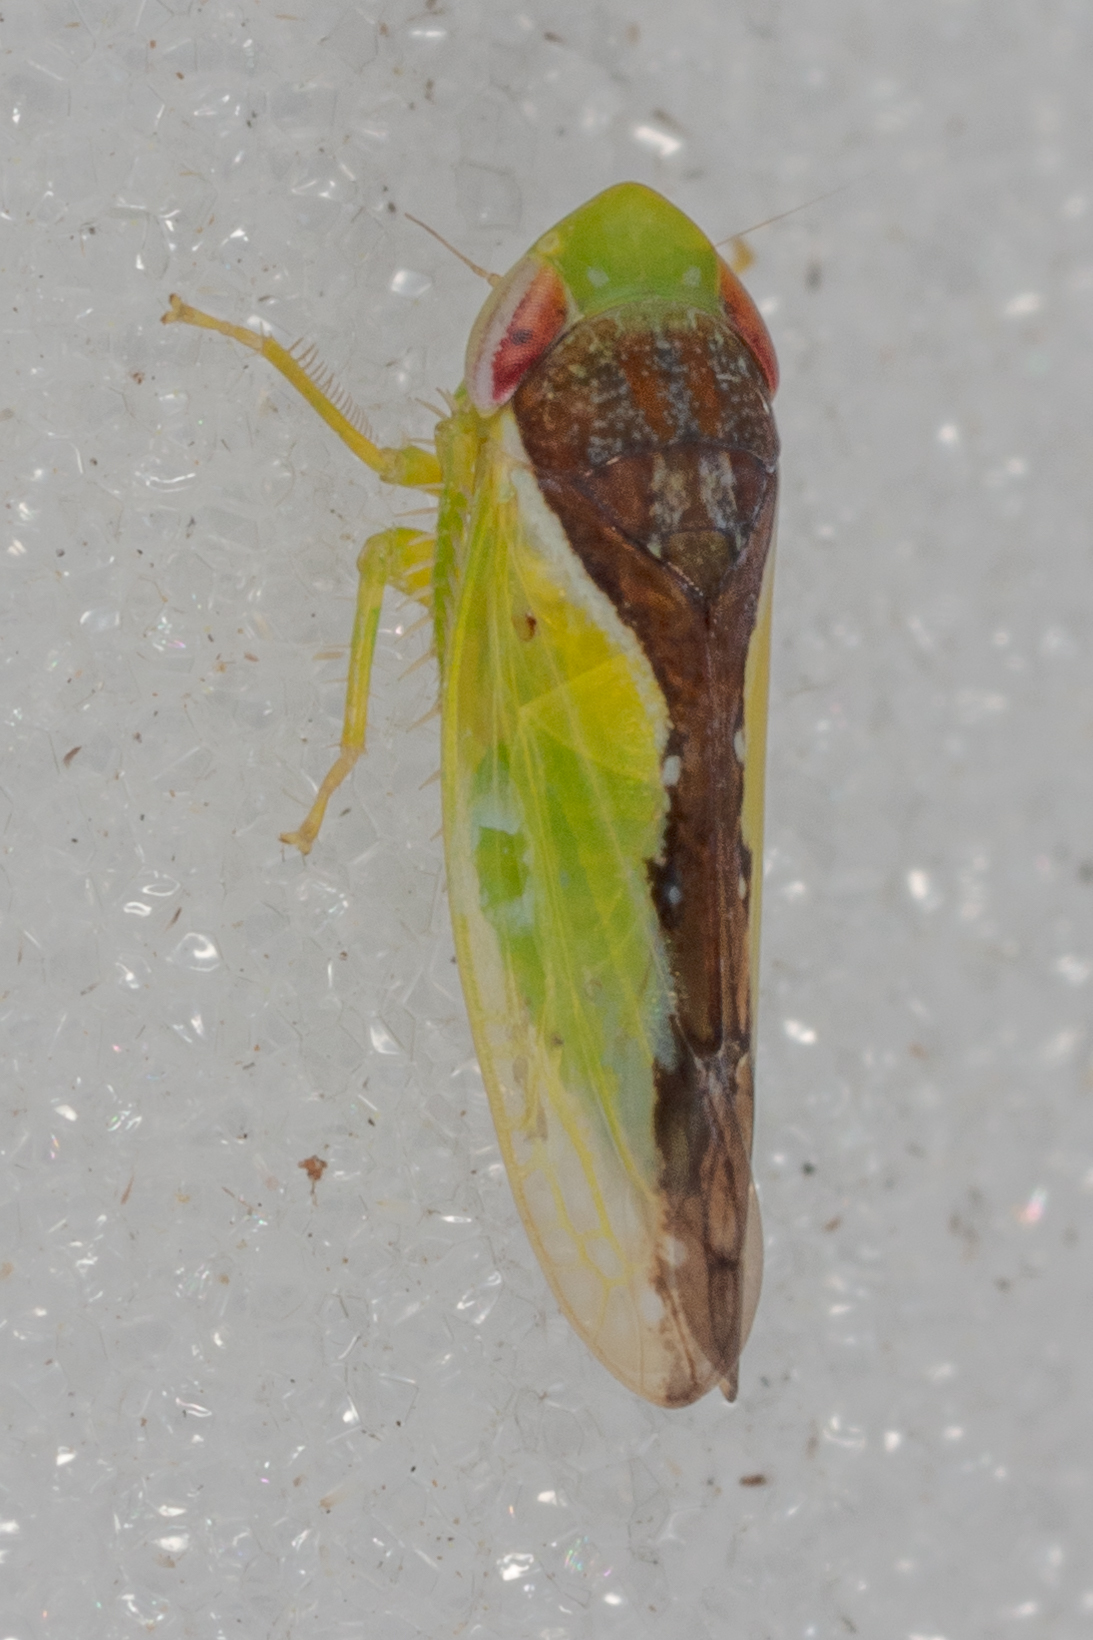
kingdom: Animalia
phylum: Arthropoda
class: Insecta
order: Hemiptera
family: Cicadellidae
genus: Omansobara ing
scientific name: Omansobara ing Omansobara palliolata
